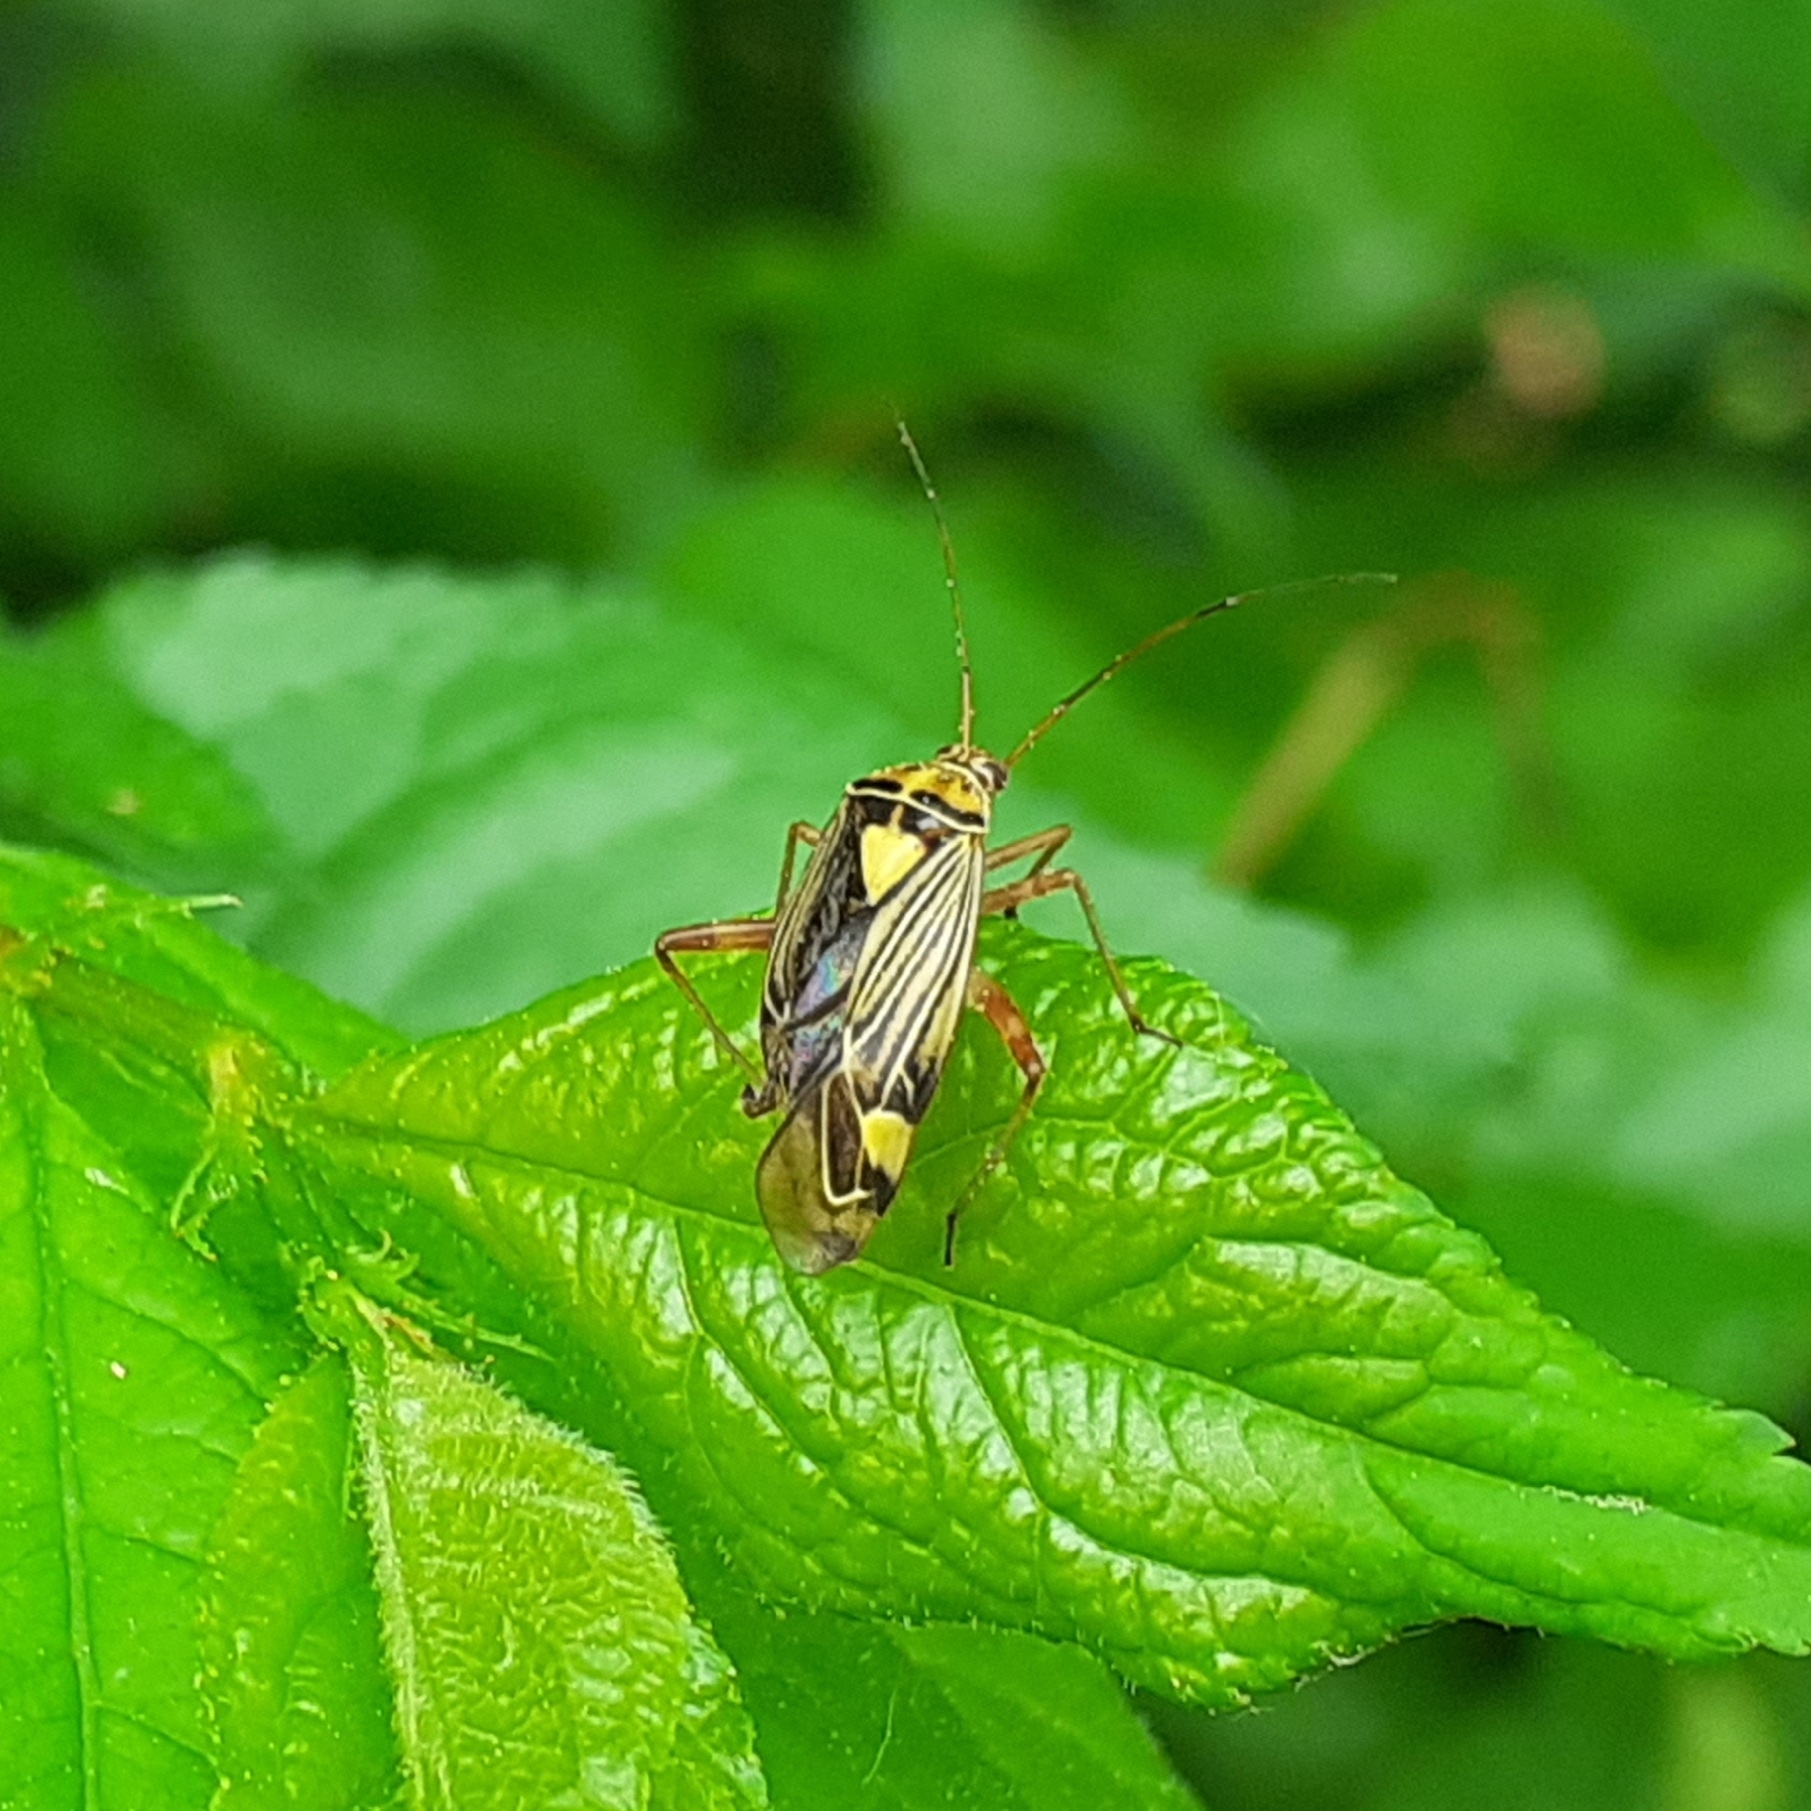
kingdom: Animalia
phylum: Arthropoda
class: Insecta
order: Hemiptera
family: Miridae
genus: Rhabdomiris
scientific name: Rhabdomiris striatellus
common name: Plant bug
